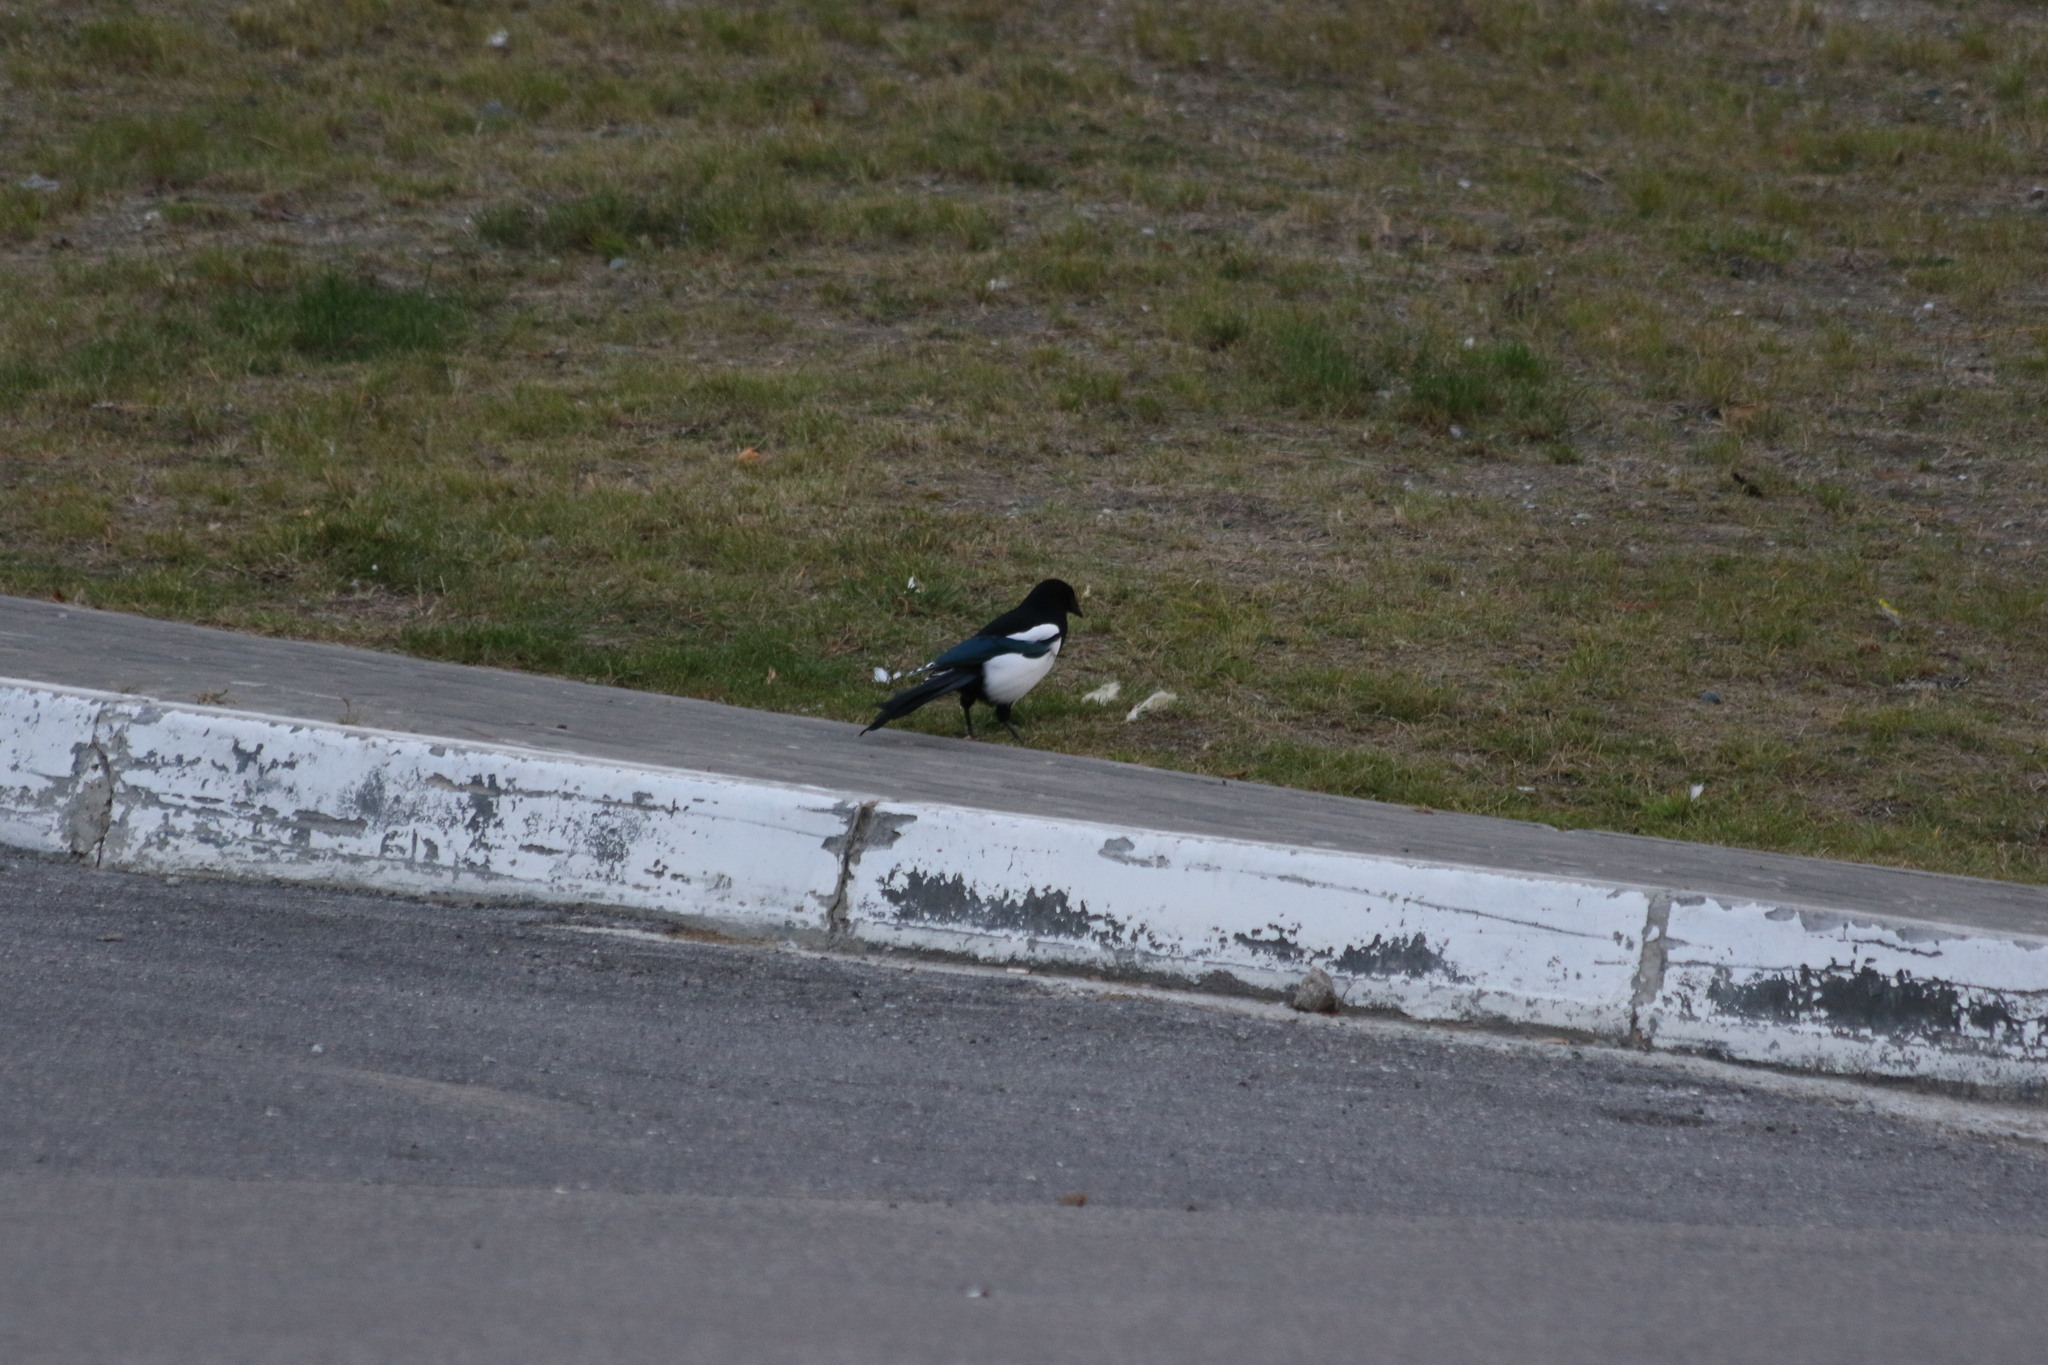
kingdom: Animalia
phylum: Chordata
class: Aves
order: Passeriformes
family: Corvidae
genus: Pica
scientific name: Pica pica
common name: Eurasian magpie
